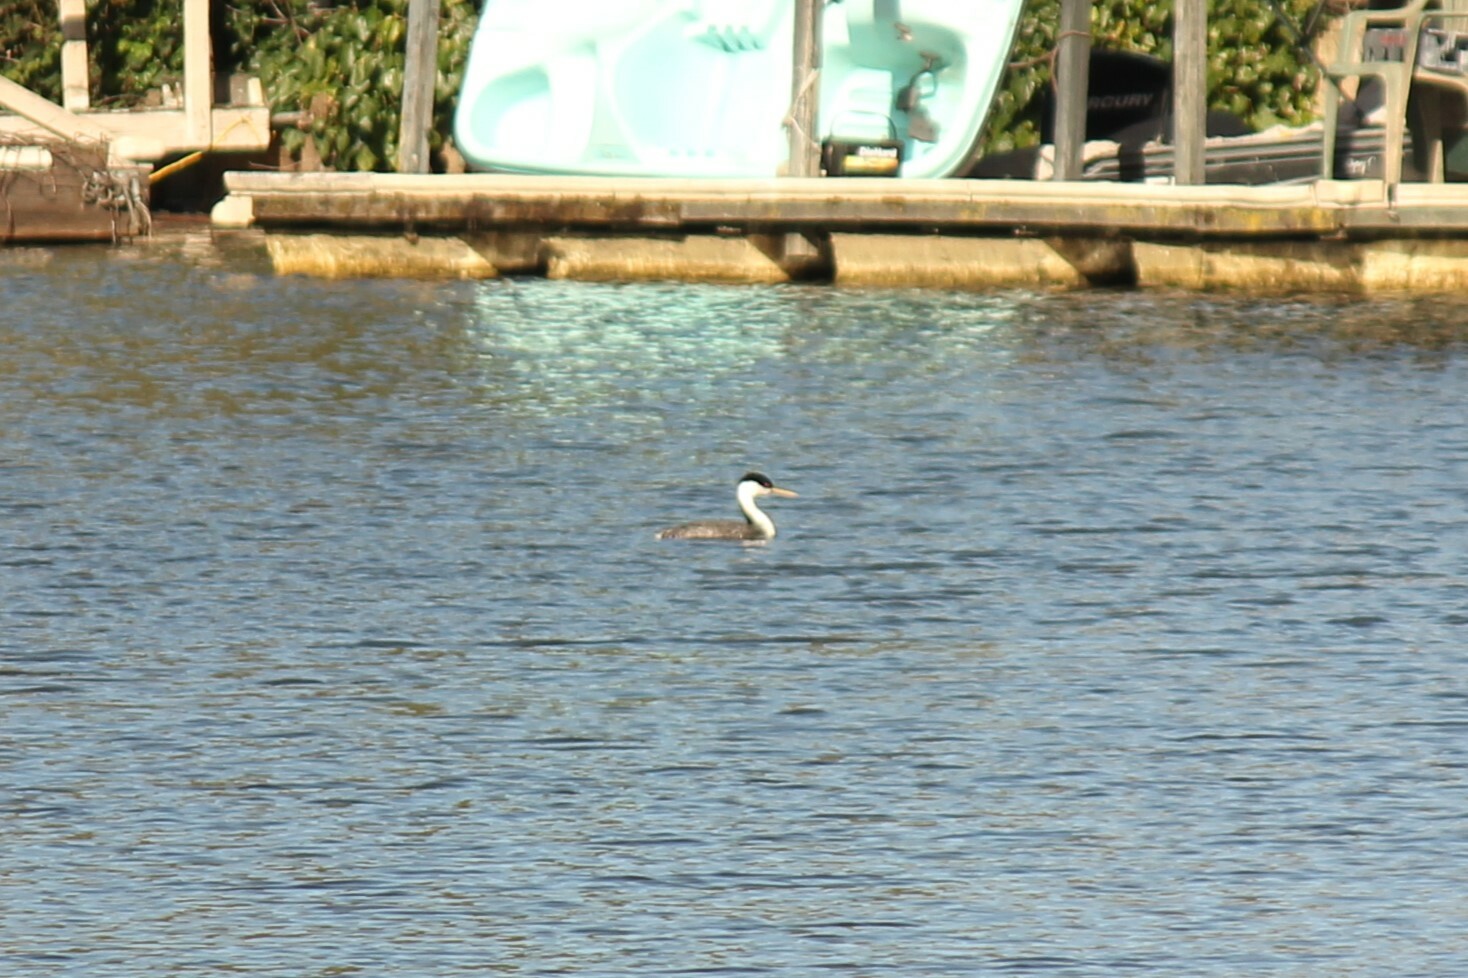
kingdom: Animalia
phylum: Chordata
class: Aves
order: Podicipediformes
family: Podicipedidae
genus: Aechmophorus
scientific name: Aechmophorus occidentalis
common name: Western grebe
